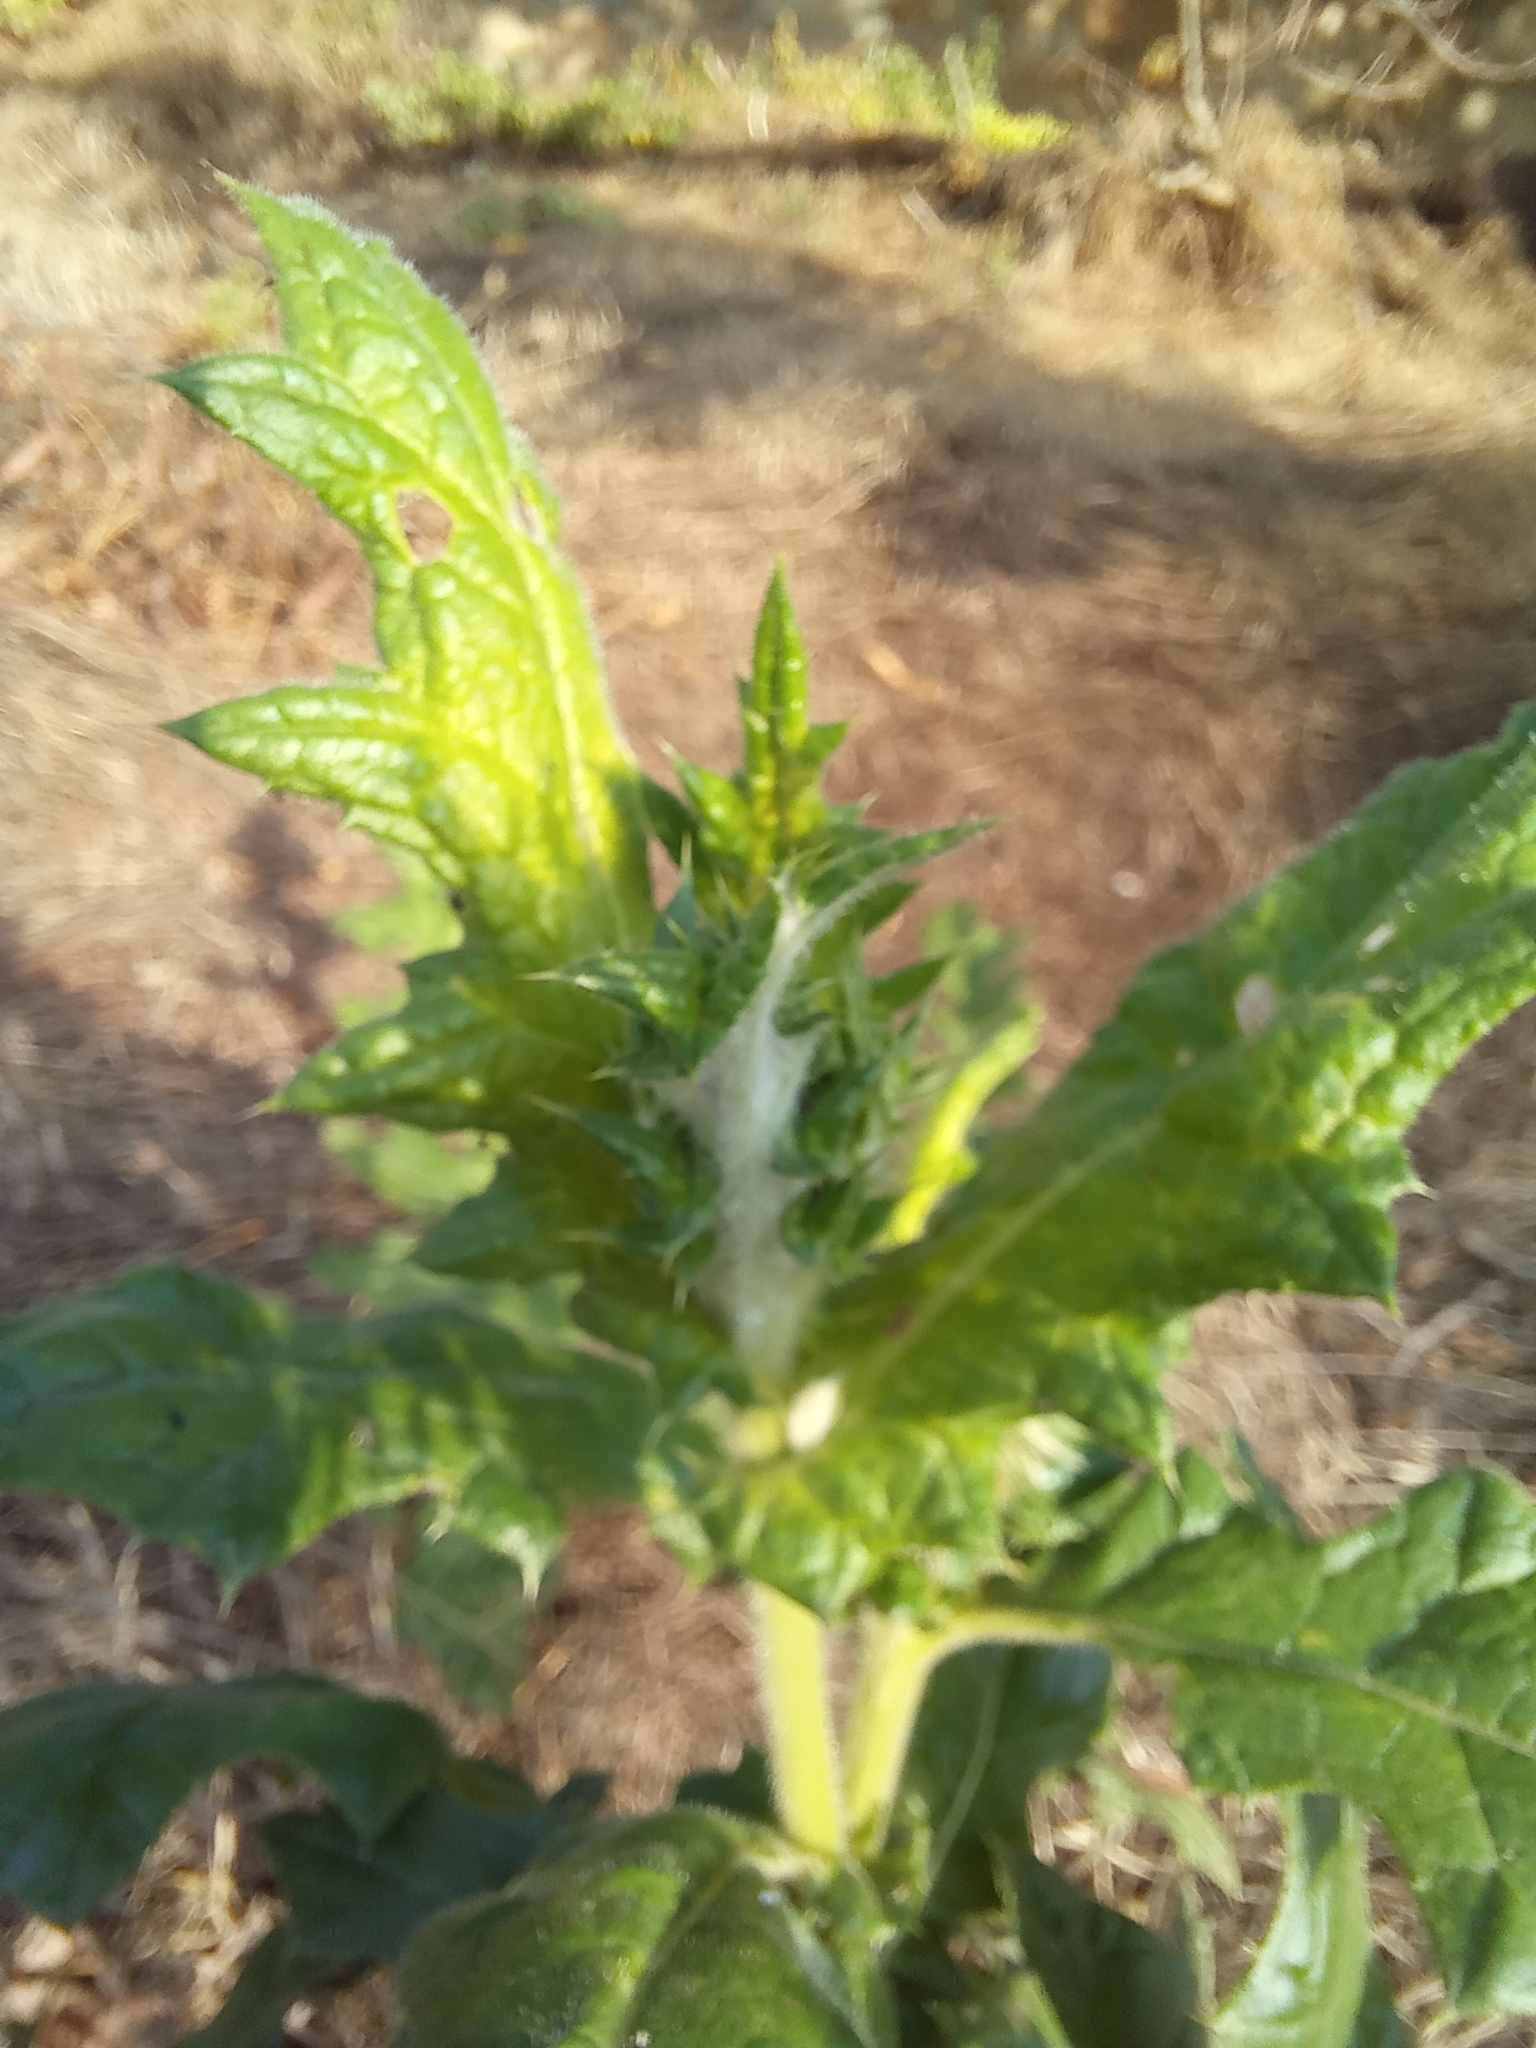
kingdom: Plantae
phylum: Tracheophyta
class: Magnoliopsida
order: Asterales
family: Asteraceae
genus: Echinops
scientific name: Echinops sphaerocephalus
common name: Glandular globe-thistle
